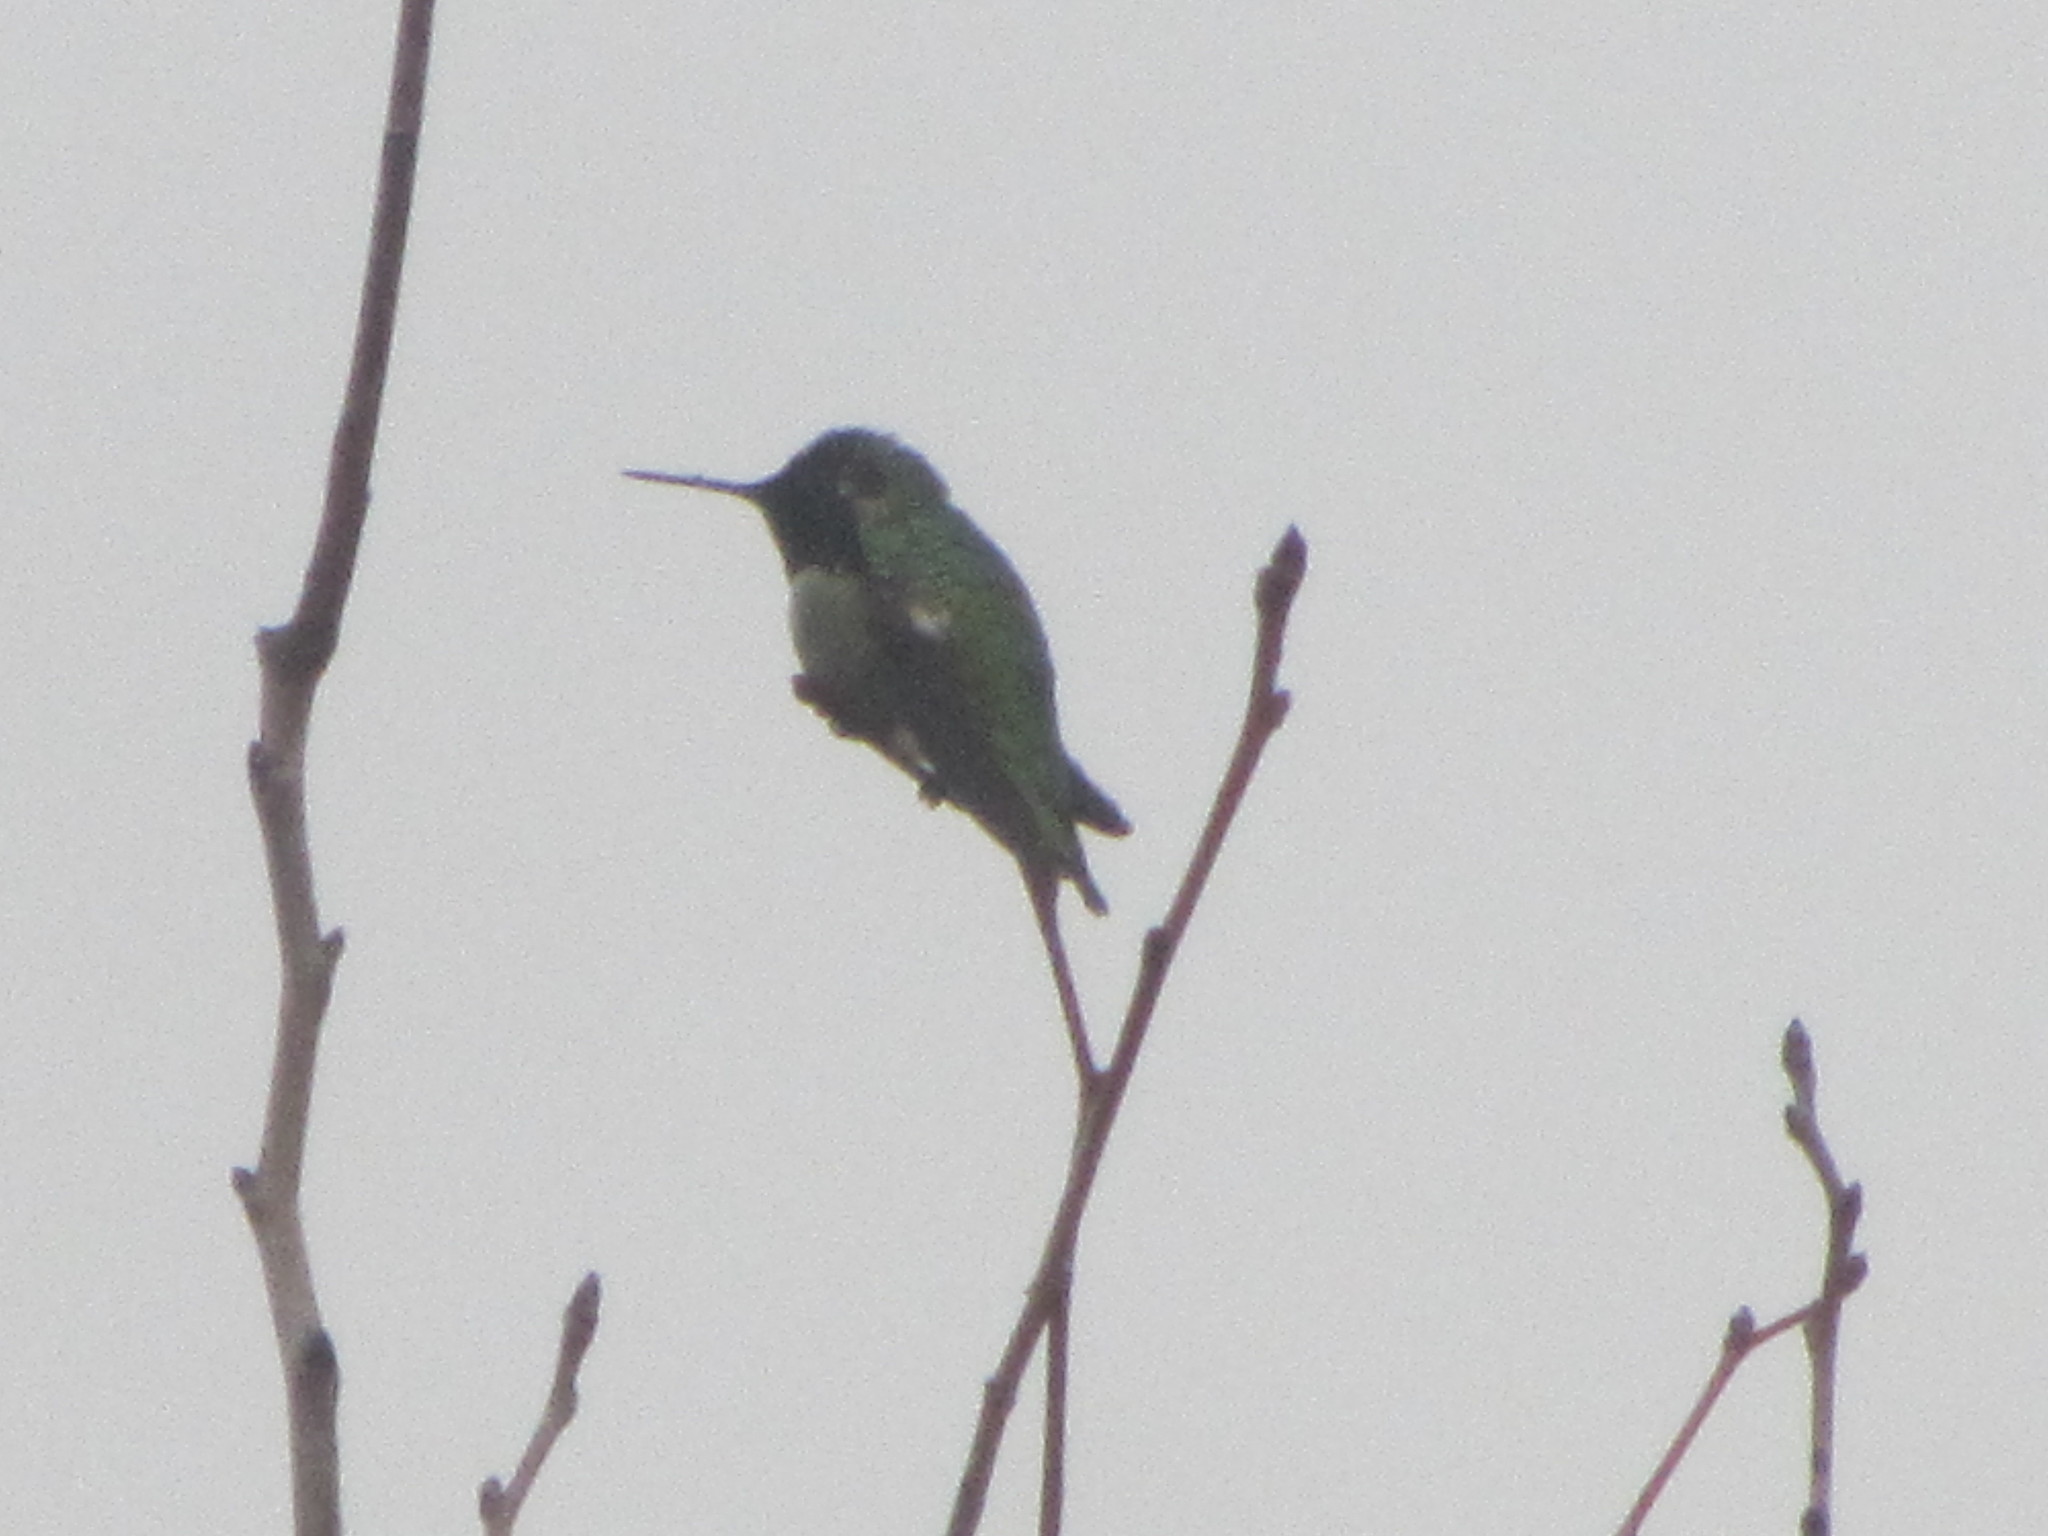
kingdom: Animalia
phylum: Chordata
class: Aves
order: Apodiformes
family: Trochilidae
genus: Calypte
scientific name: Calypte anna
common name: Anna's hummingbird
